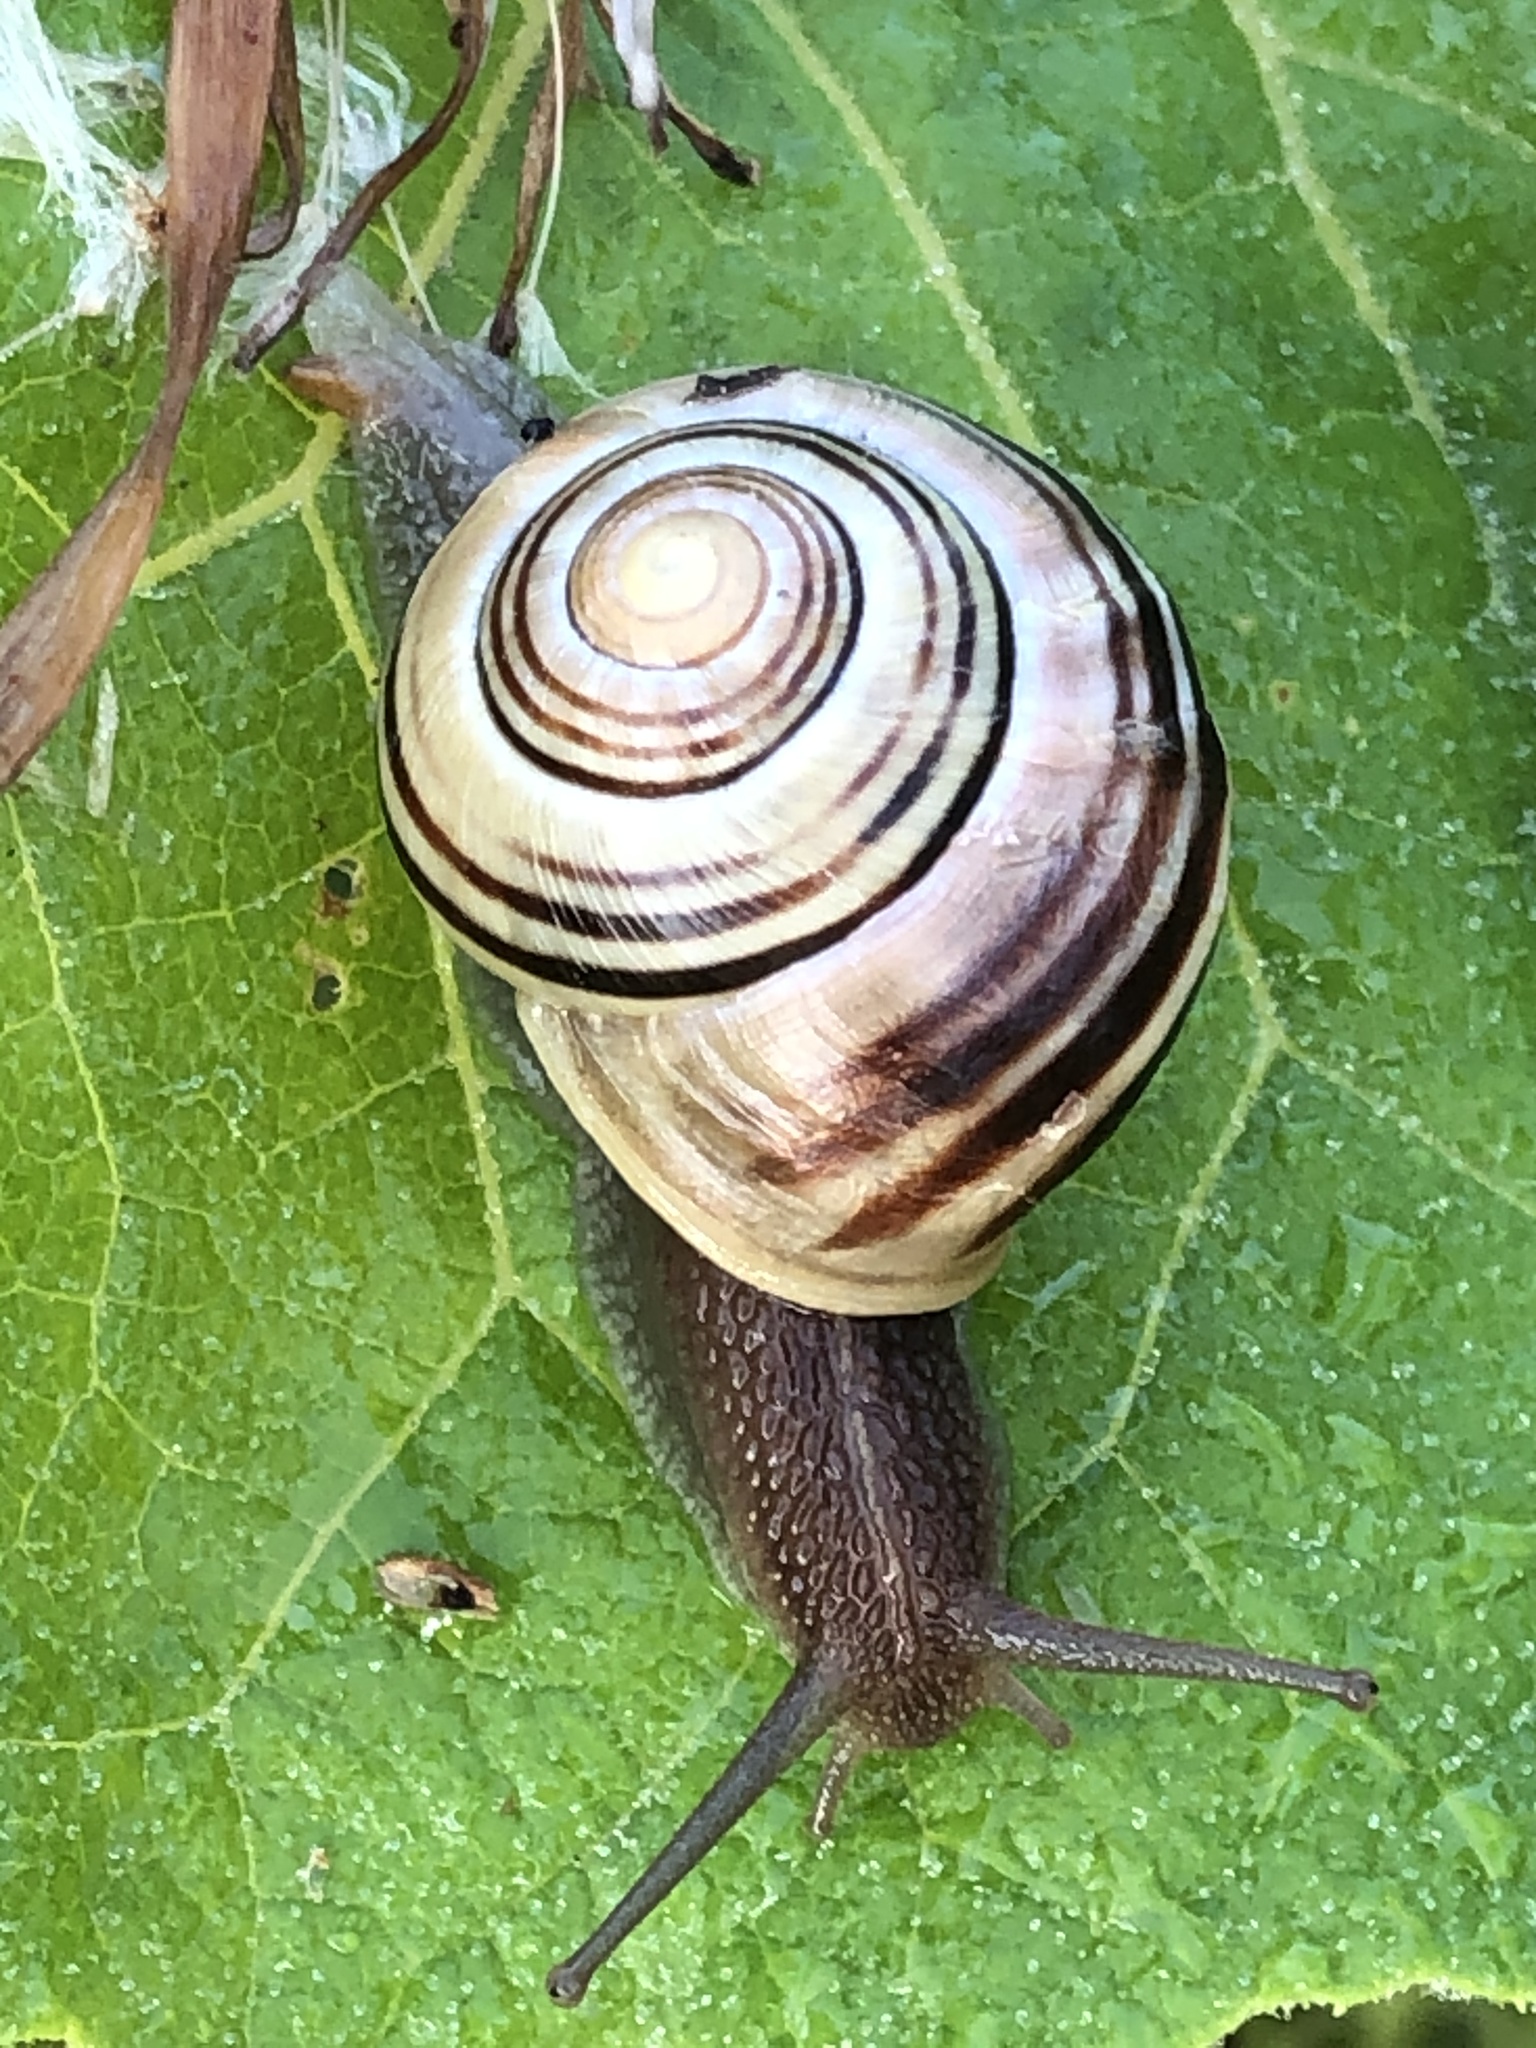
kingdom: Animalia
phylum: Mollusca
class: Gastropoda
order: Stylommatophora
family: Helicidae
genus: Cepaea
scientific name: Cepaea
